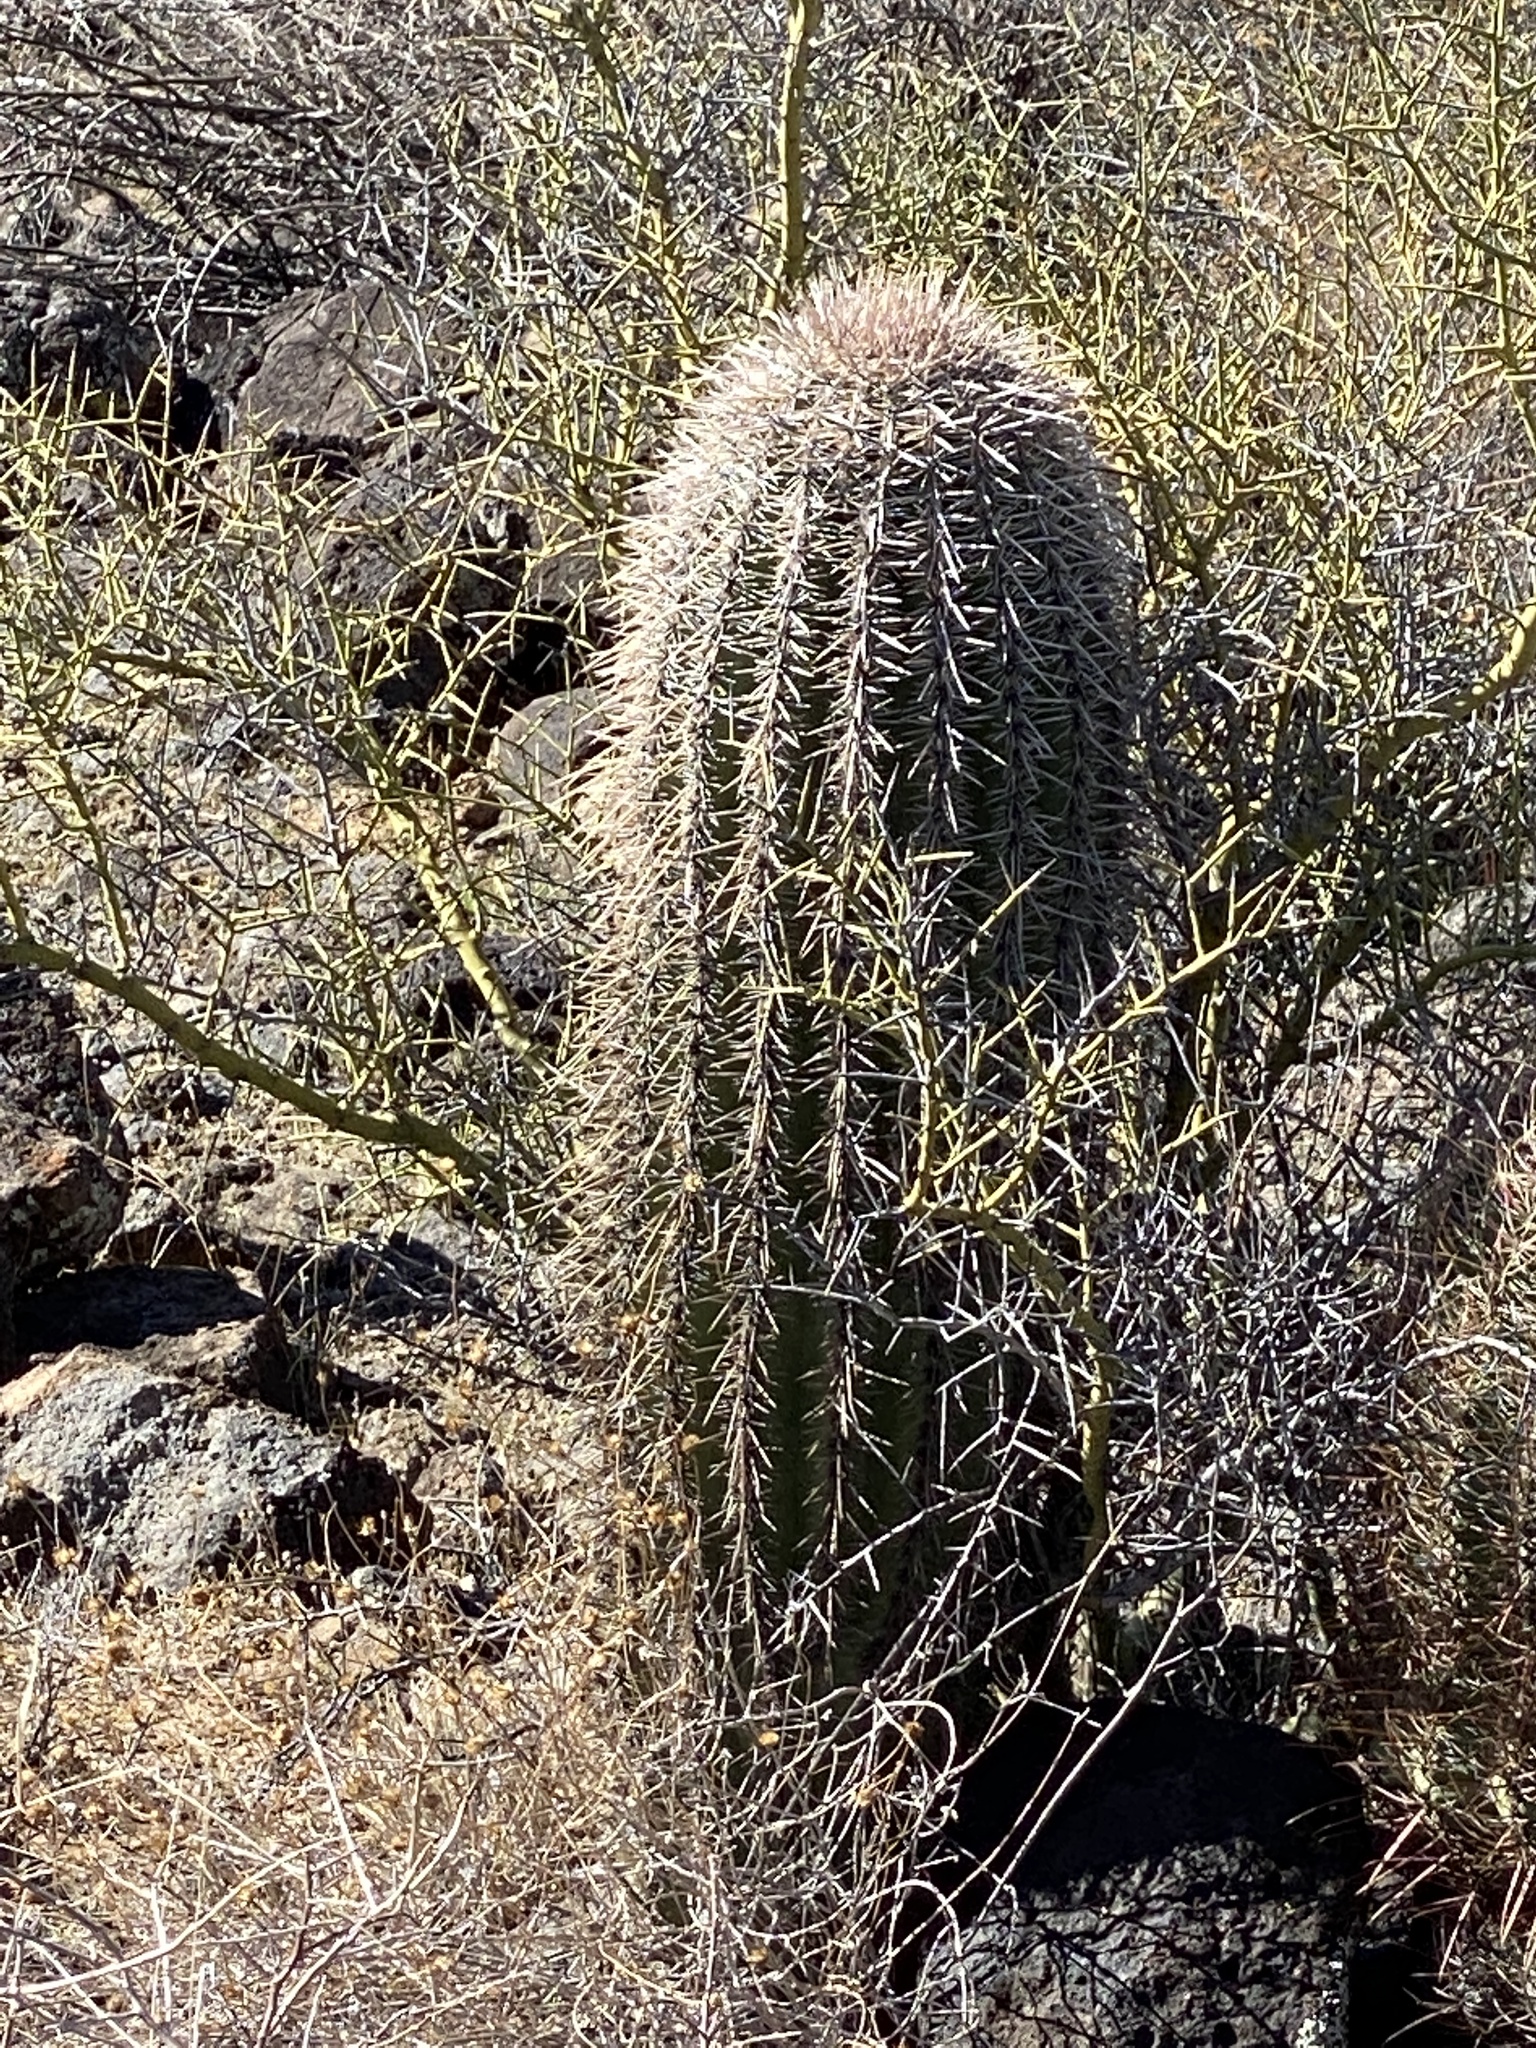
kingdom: Plantae
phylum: Tracheophyta
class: Magnoliopsida
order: Caryophyllales
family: Cactaceae
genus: Carnegiea
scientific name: Carnegiea gigantea
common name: Saguaro
